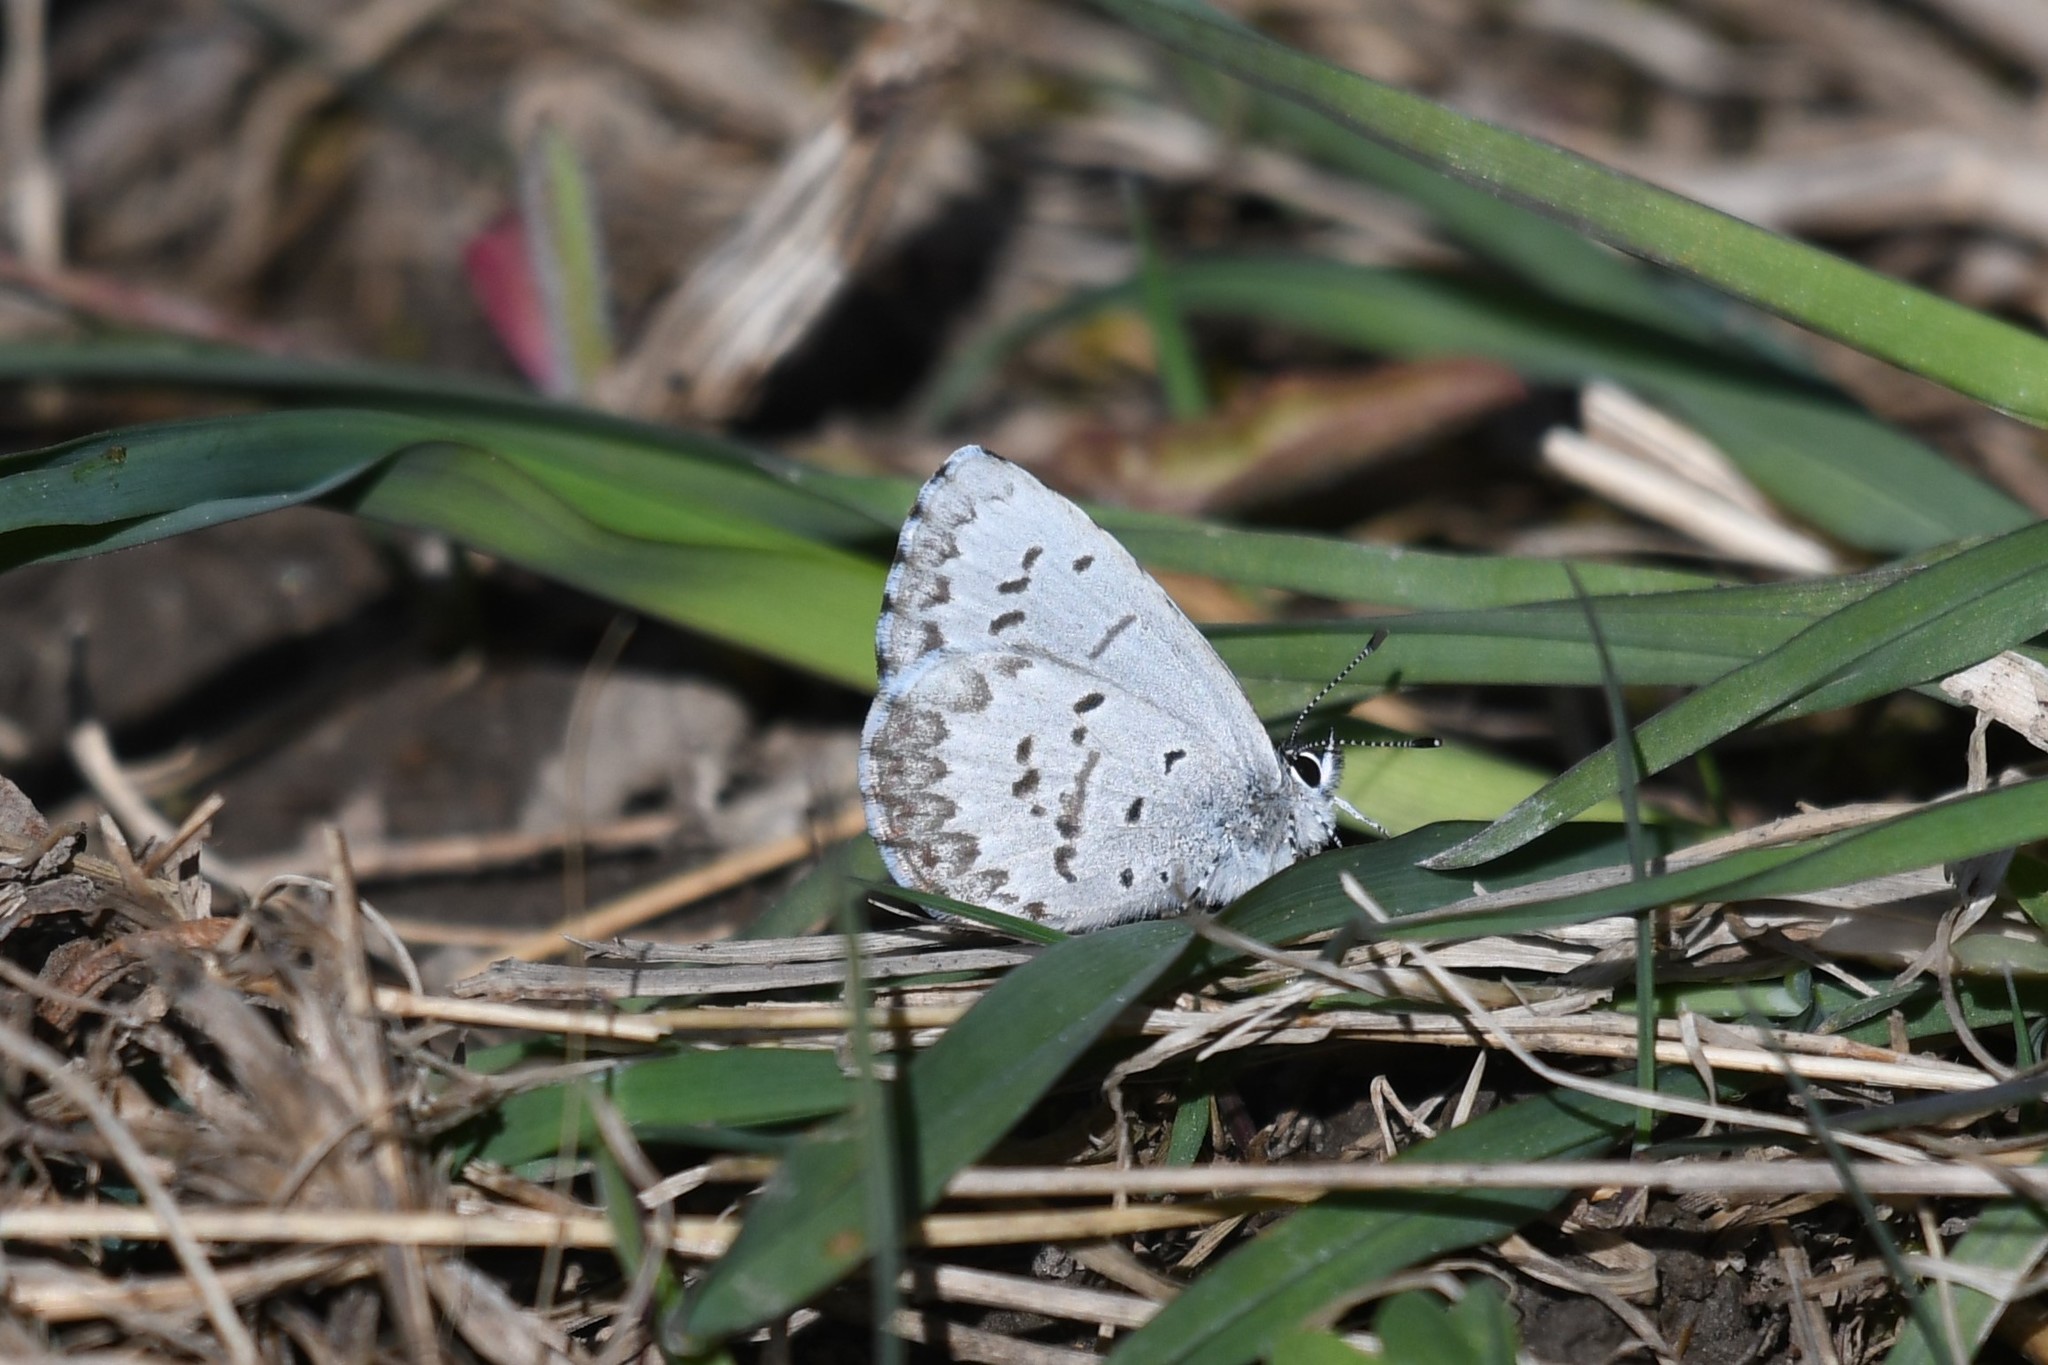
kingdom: Animalia
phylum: Arthropoda
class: Insecta
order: Lepidoptera
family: Lycaenidae
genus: Celastrina
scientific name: Celastrina lucia
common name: Lucia azure
